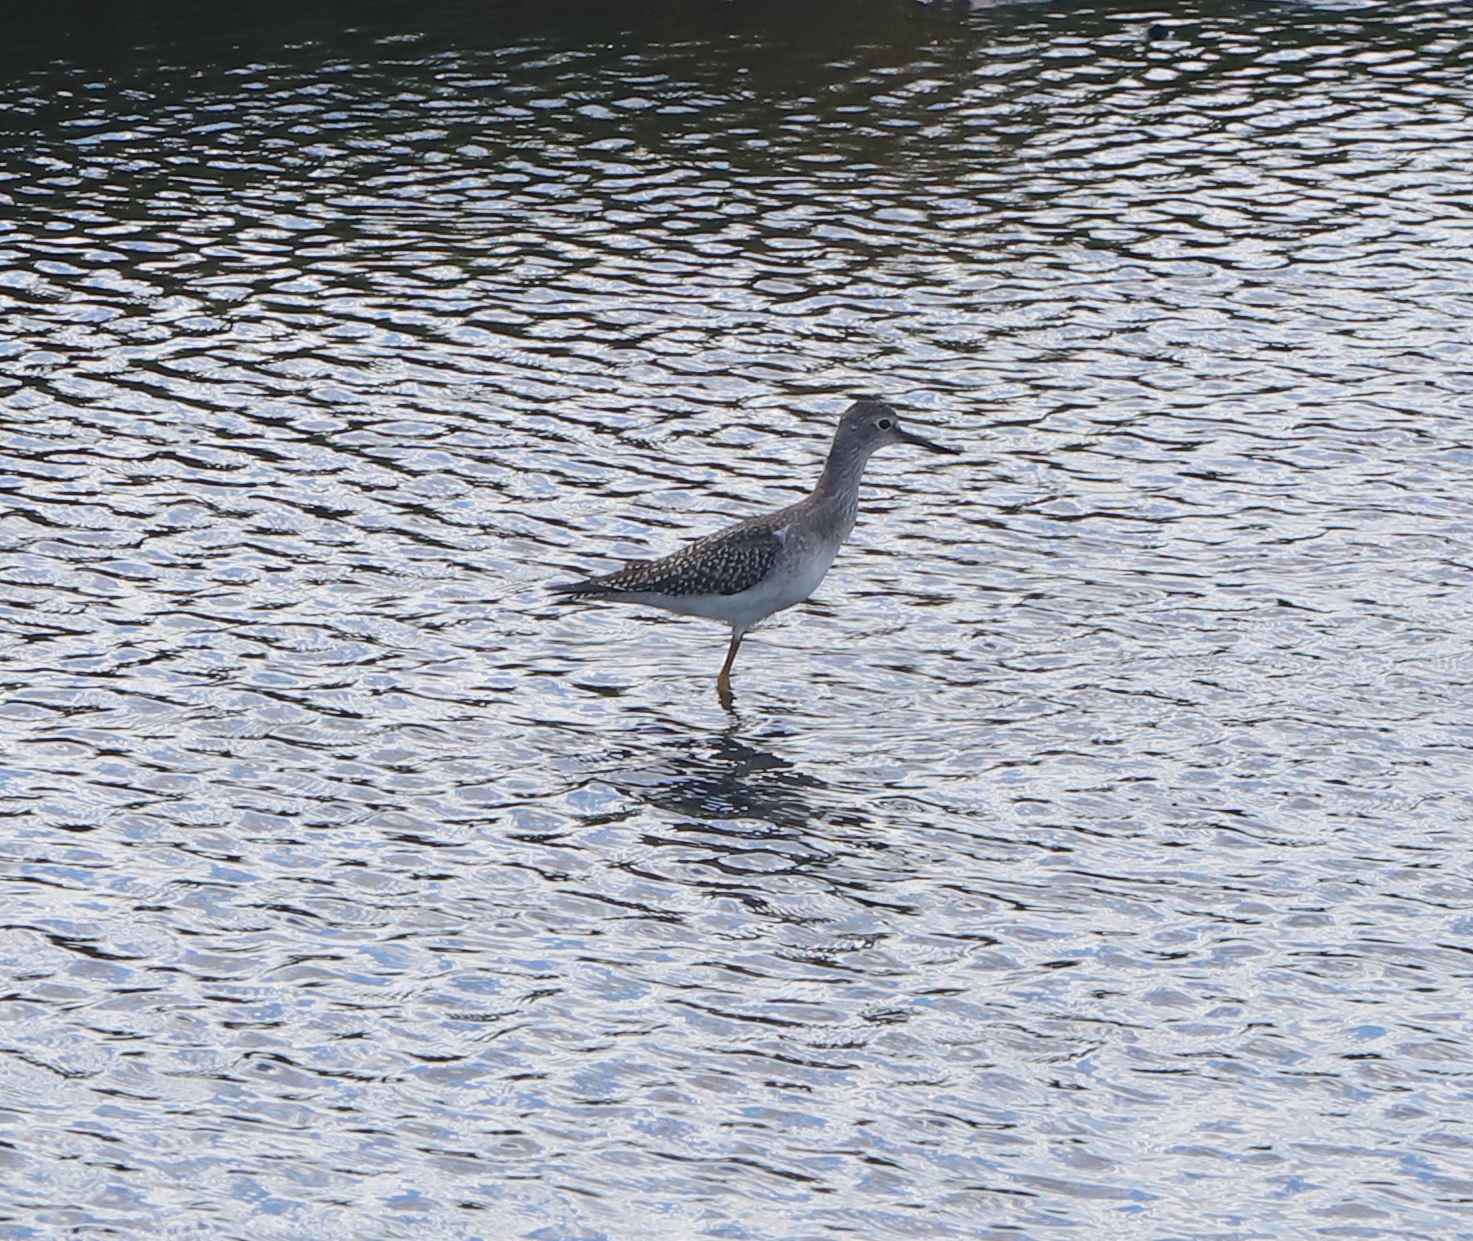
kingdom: Animalia
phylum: Chordata
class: Aves
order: Charadriiformes
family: Scolopacidae
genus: Tringa
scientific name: Tringa flavipes
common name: Lesser yellowlegs
